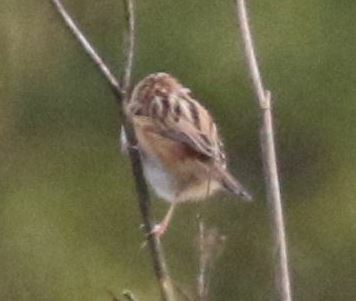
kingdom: Animalia
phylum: Chordata
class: Aves
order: Passeriformes
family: Cisticolidae
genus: Cisticola
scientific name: Cisticola juncidis
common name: Zitting cisticola
